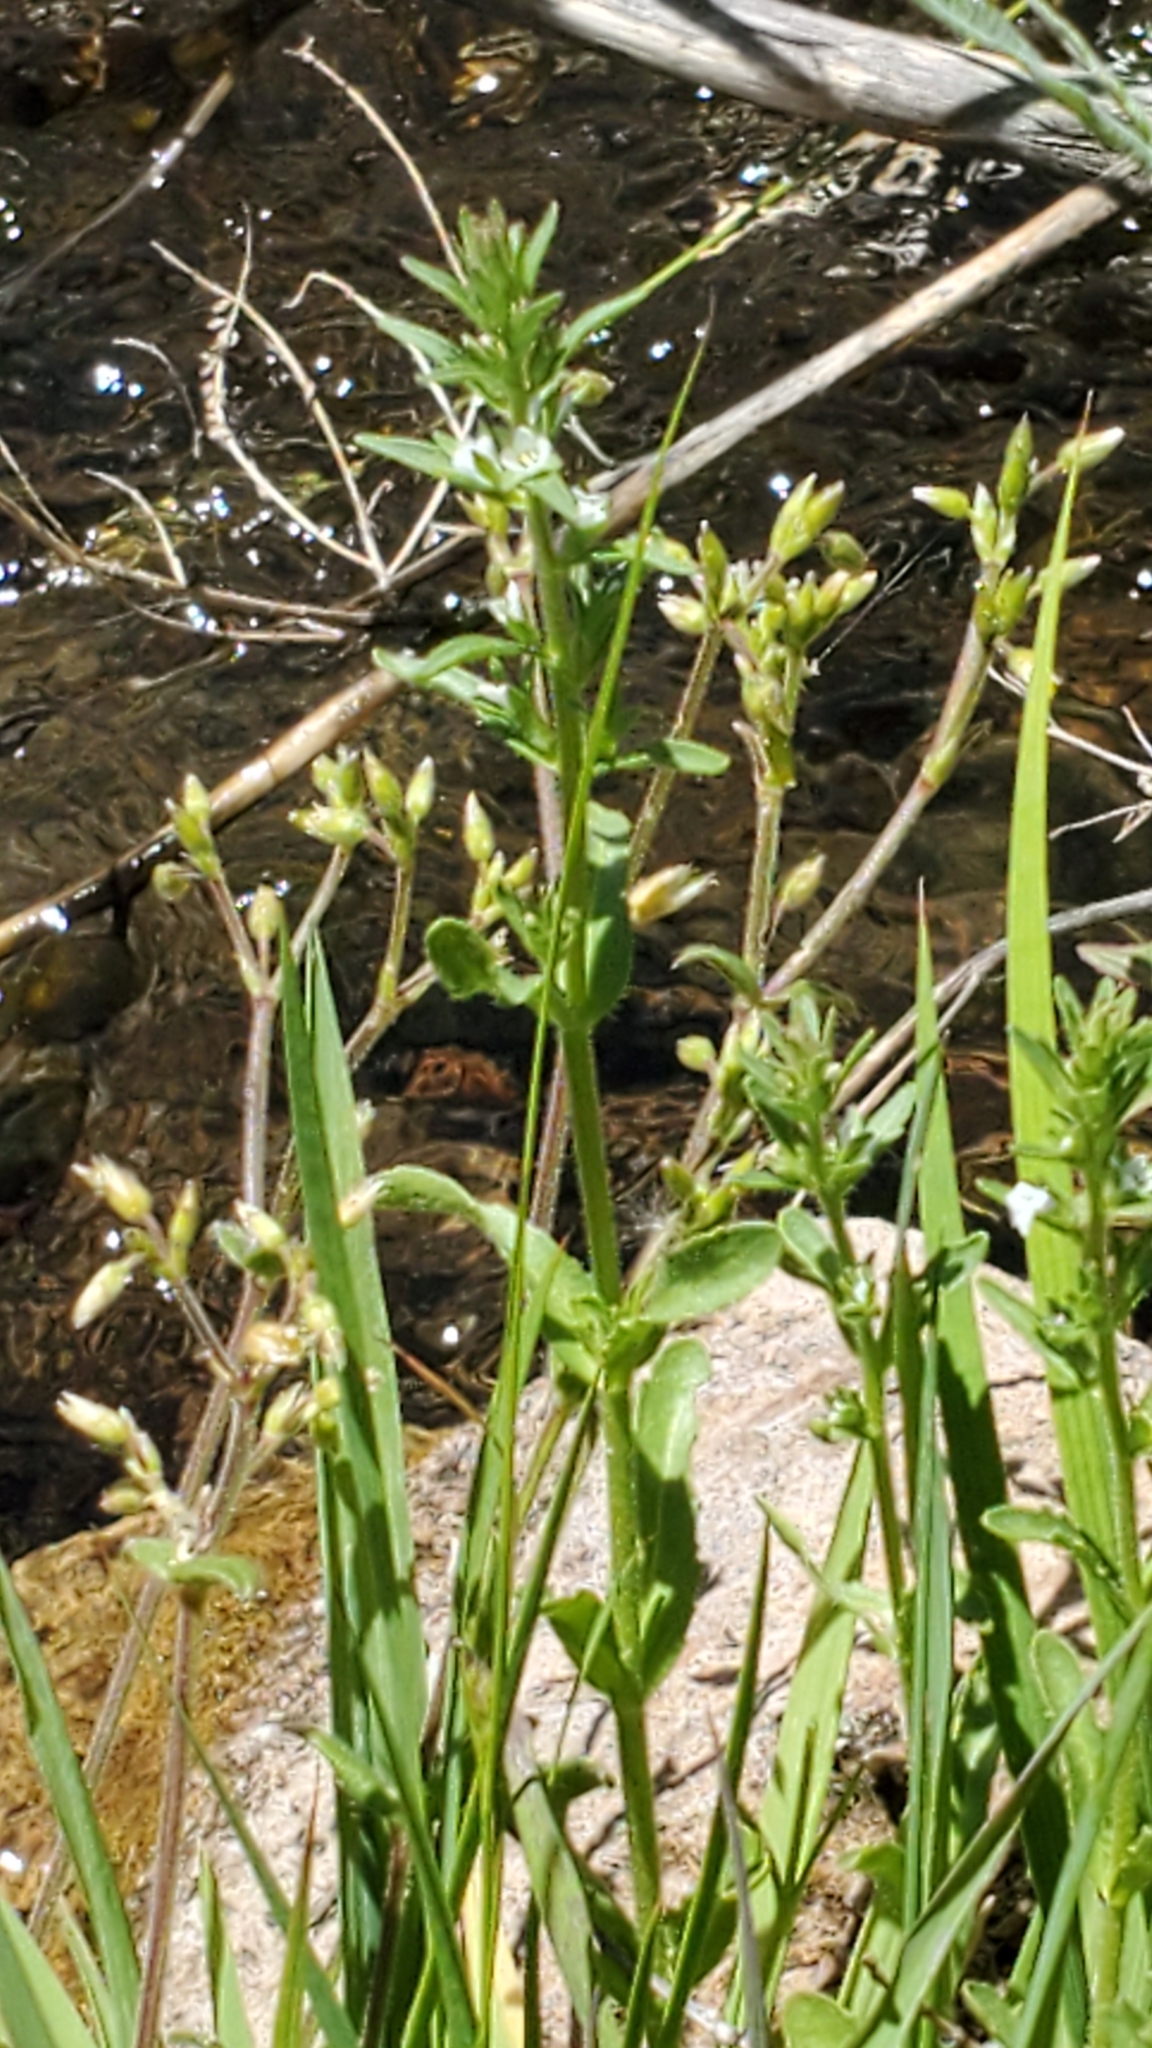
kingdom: Plantae
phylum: Tracheophyta
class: Magnoliopsida
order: Lamiales
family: Plantaginaceae
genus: Veronica
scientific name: Veronica peregrina
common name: Neckweed
